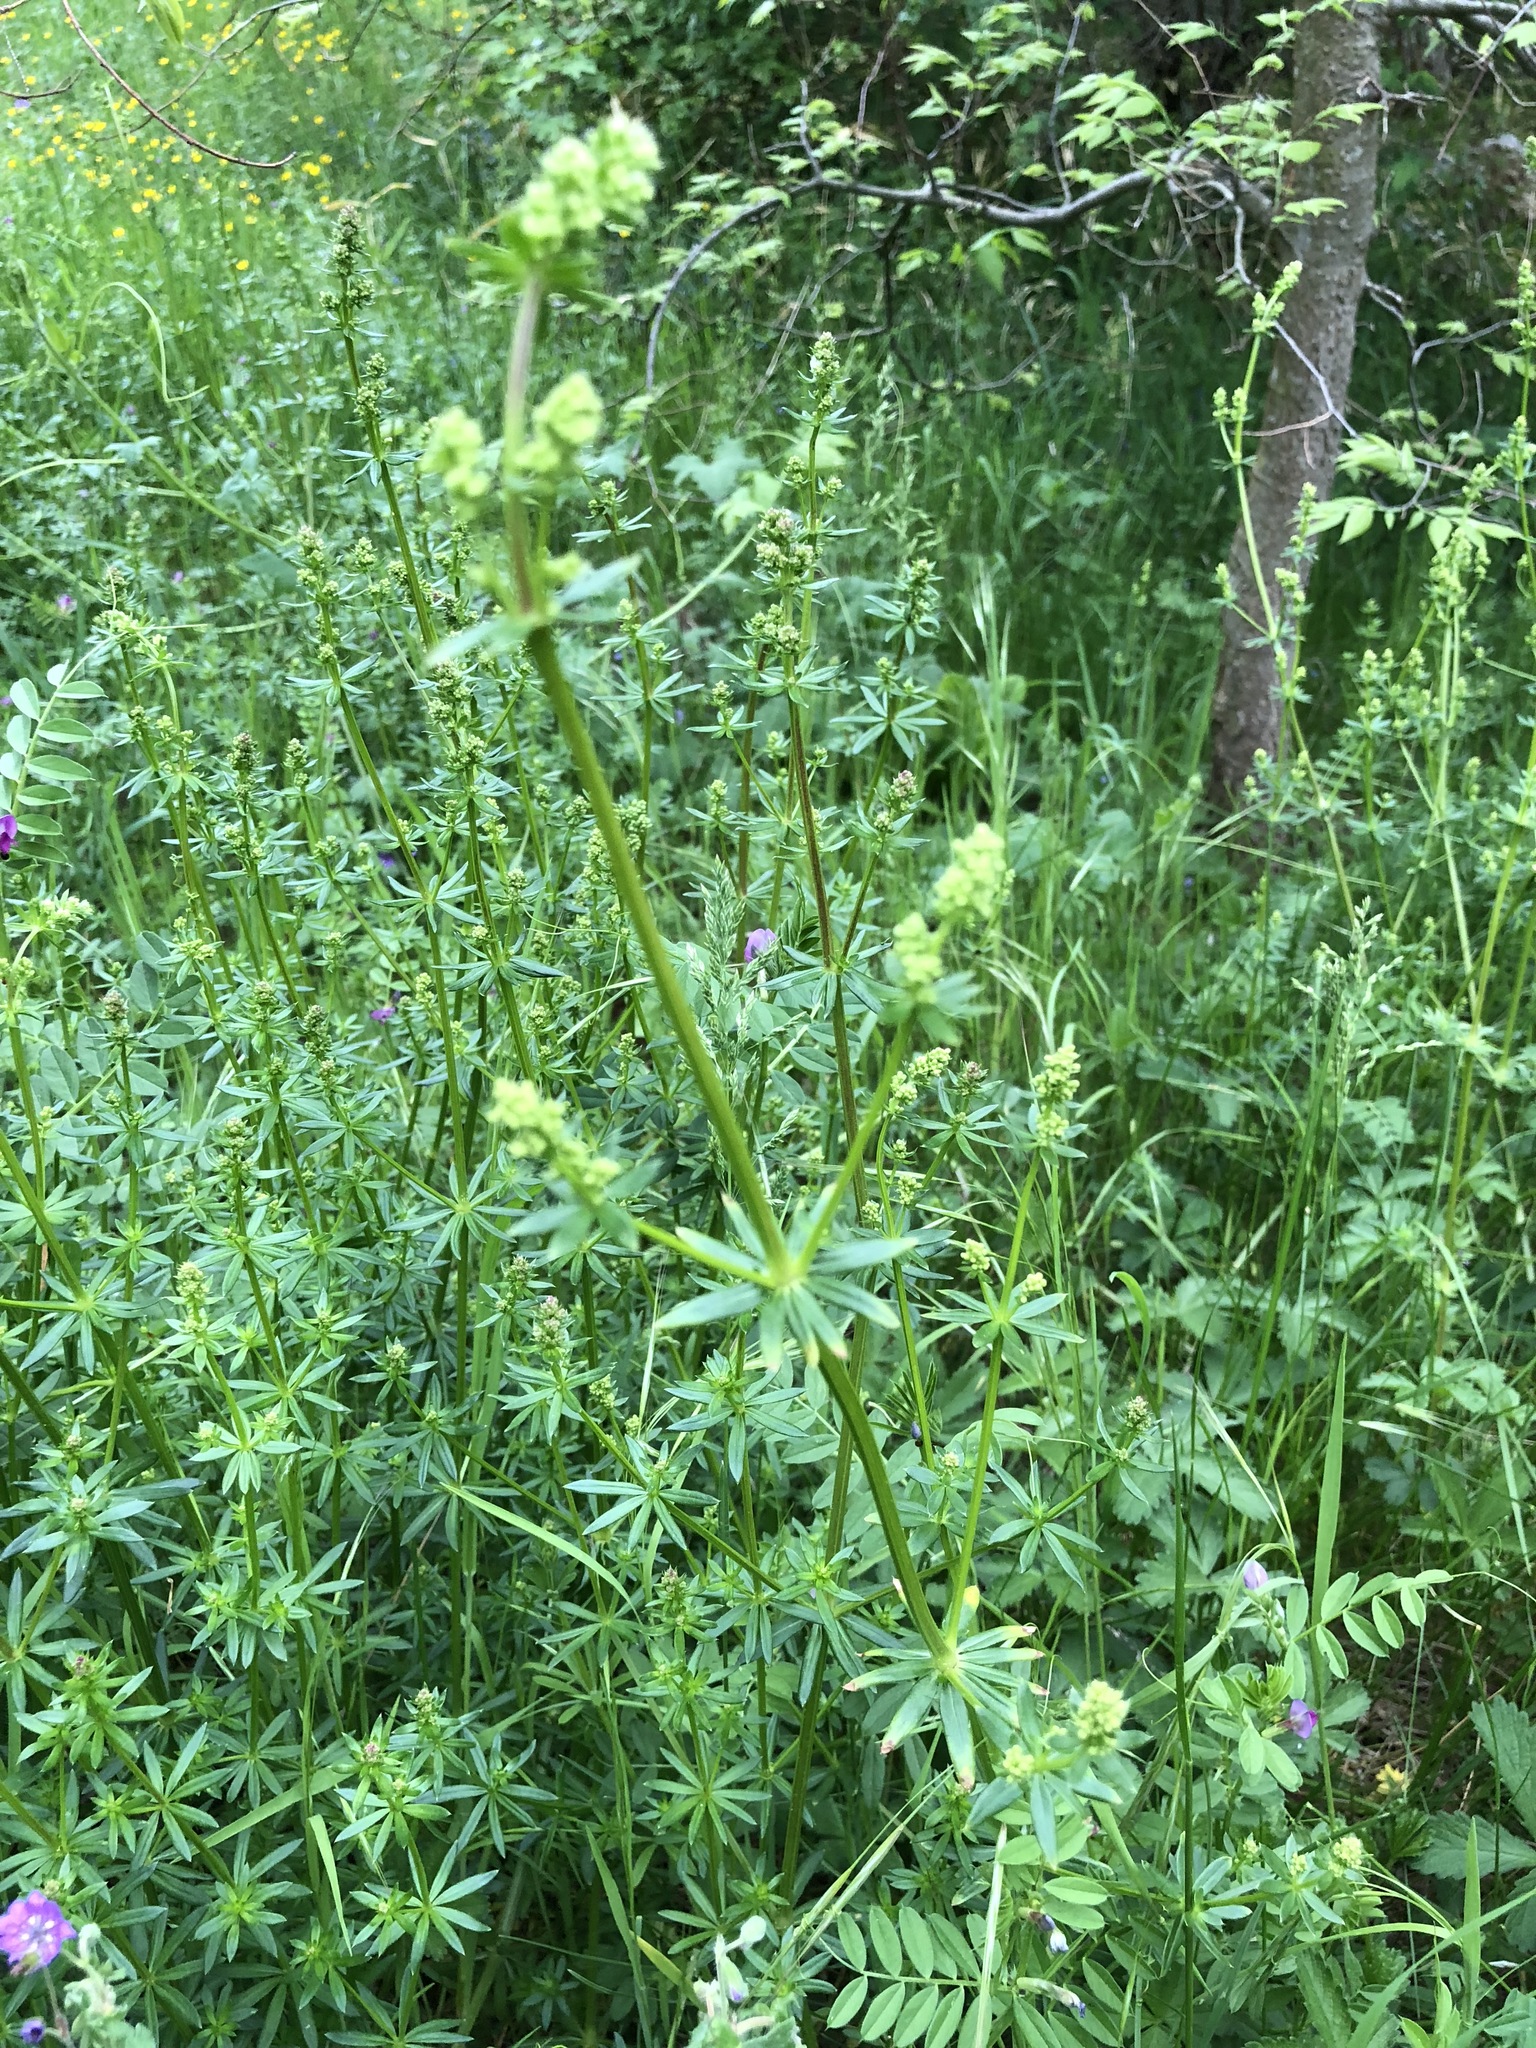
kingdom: Plantae
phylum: Tracheophyta
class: Magnoliopsida
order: Gentianales
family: Rubiaceae
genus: Galium
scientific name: Galium mollugo
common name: Hedge bedstraw
